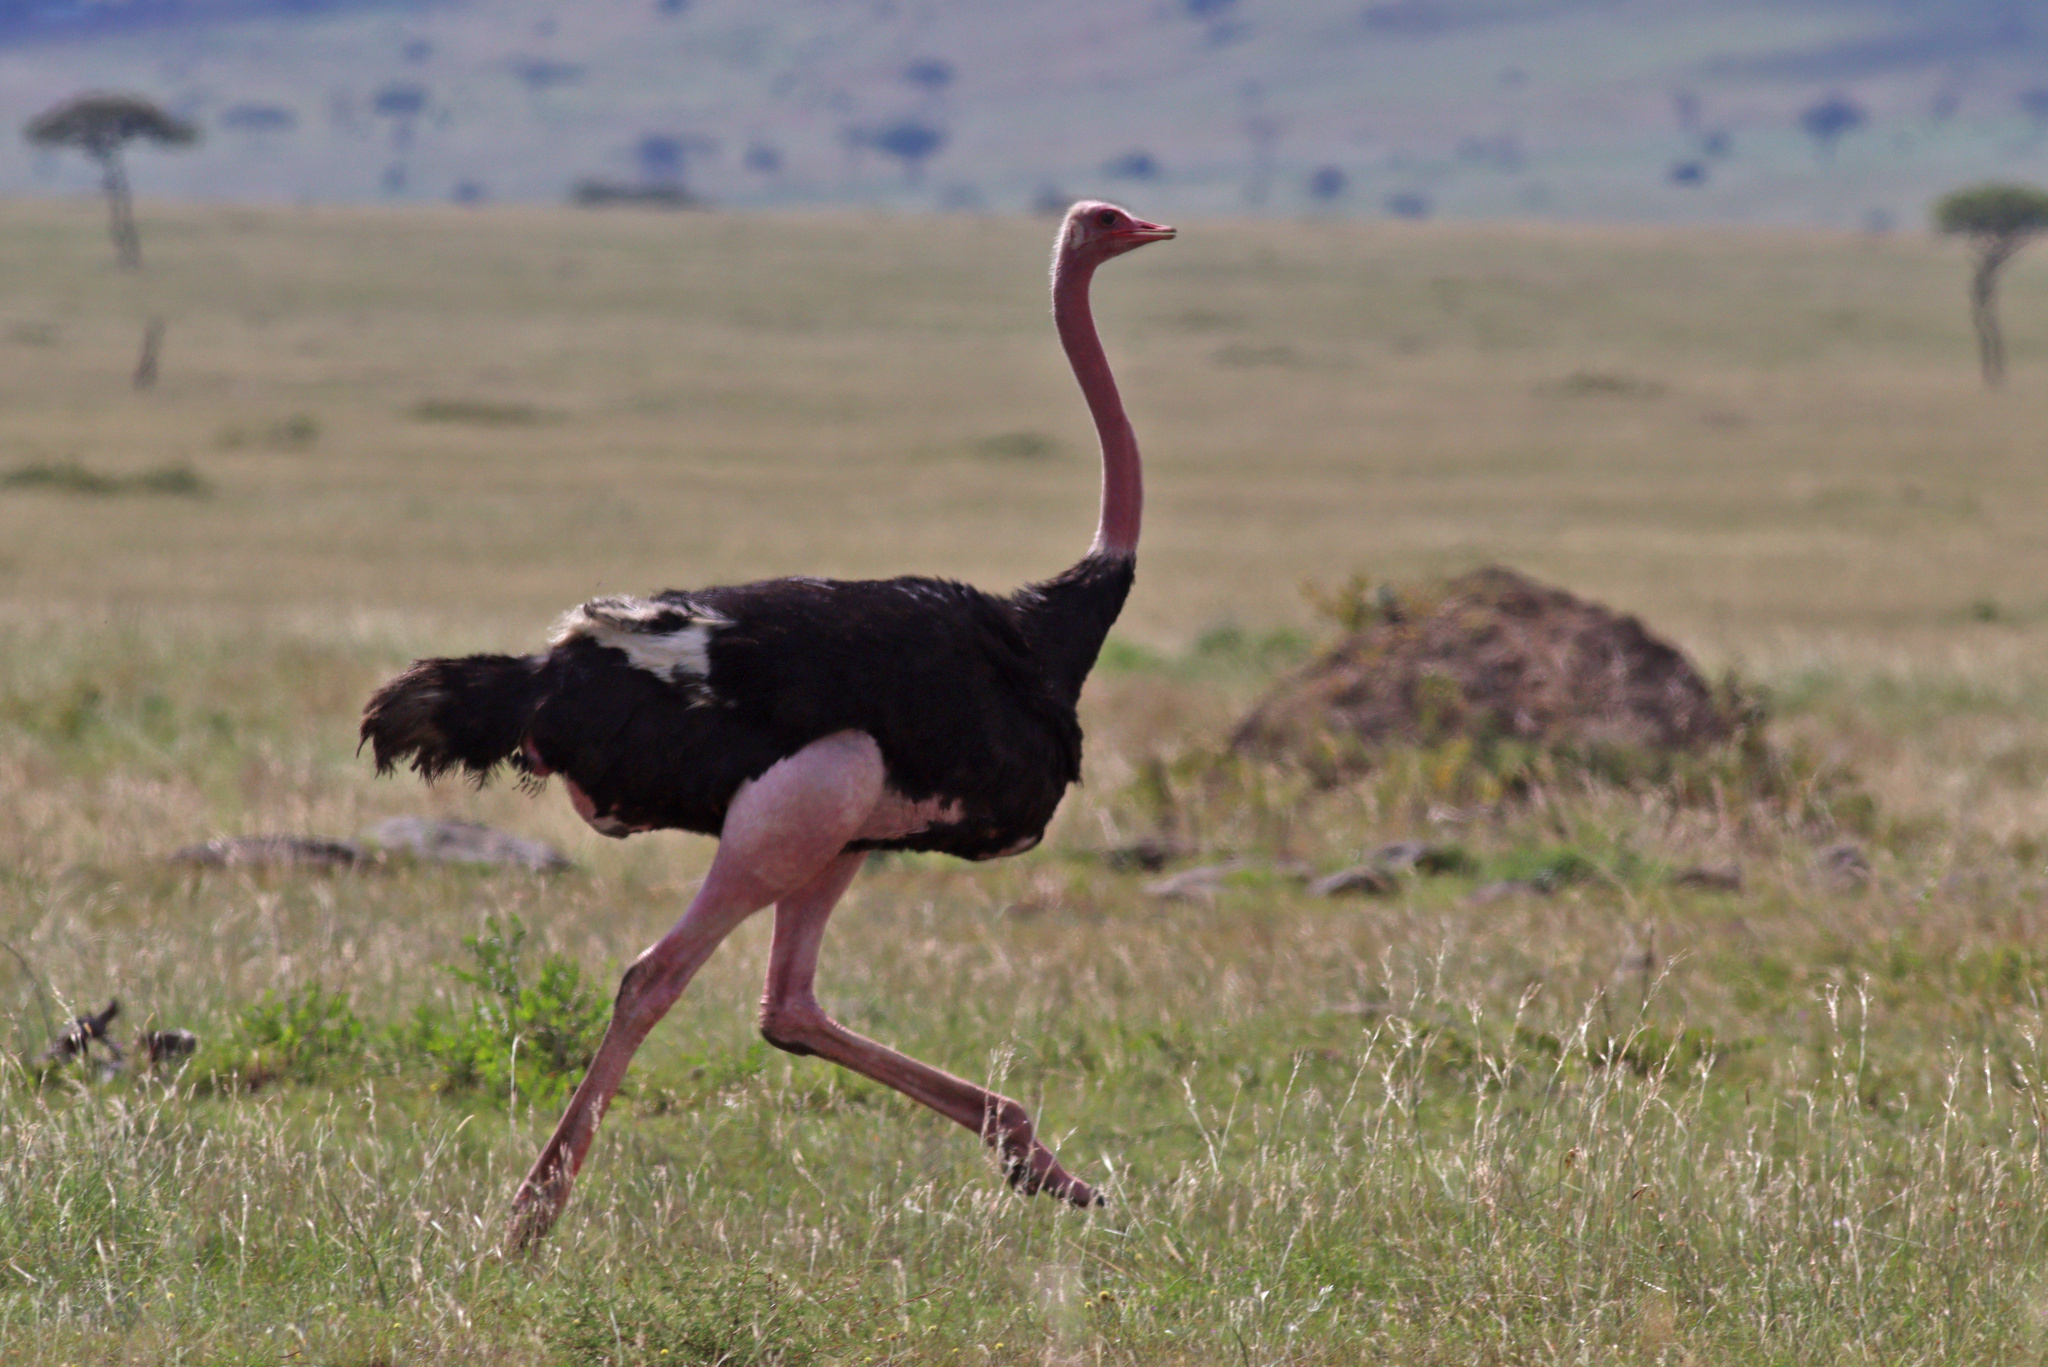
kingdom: Animalia
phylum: Chordata
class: Aves
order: Struthioniformes
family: Struthionidae
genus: Struthio
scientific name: Struthio camelus
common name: Common ostrich
